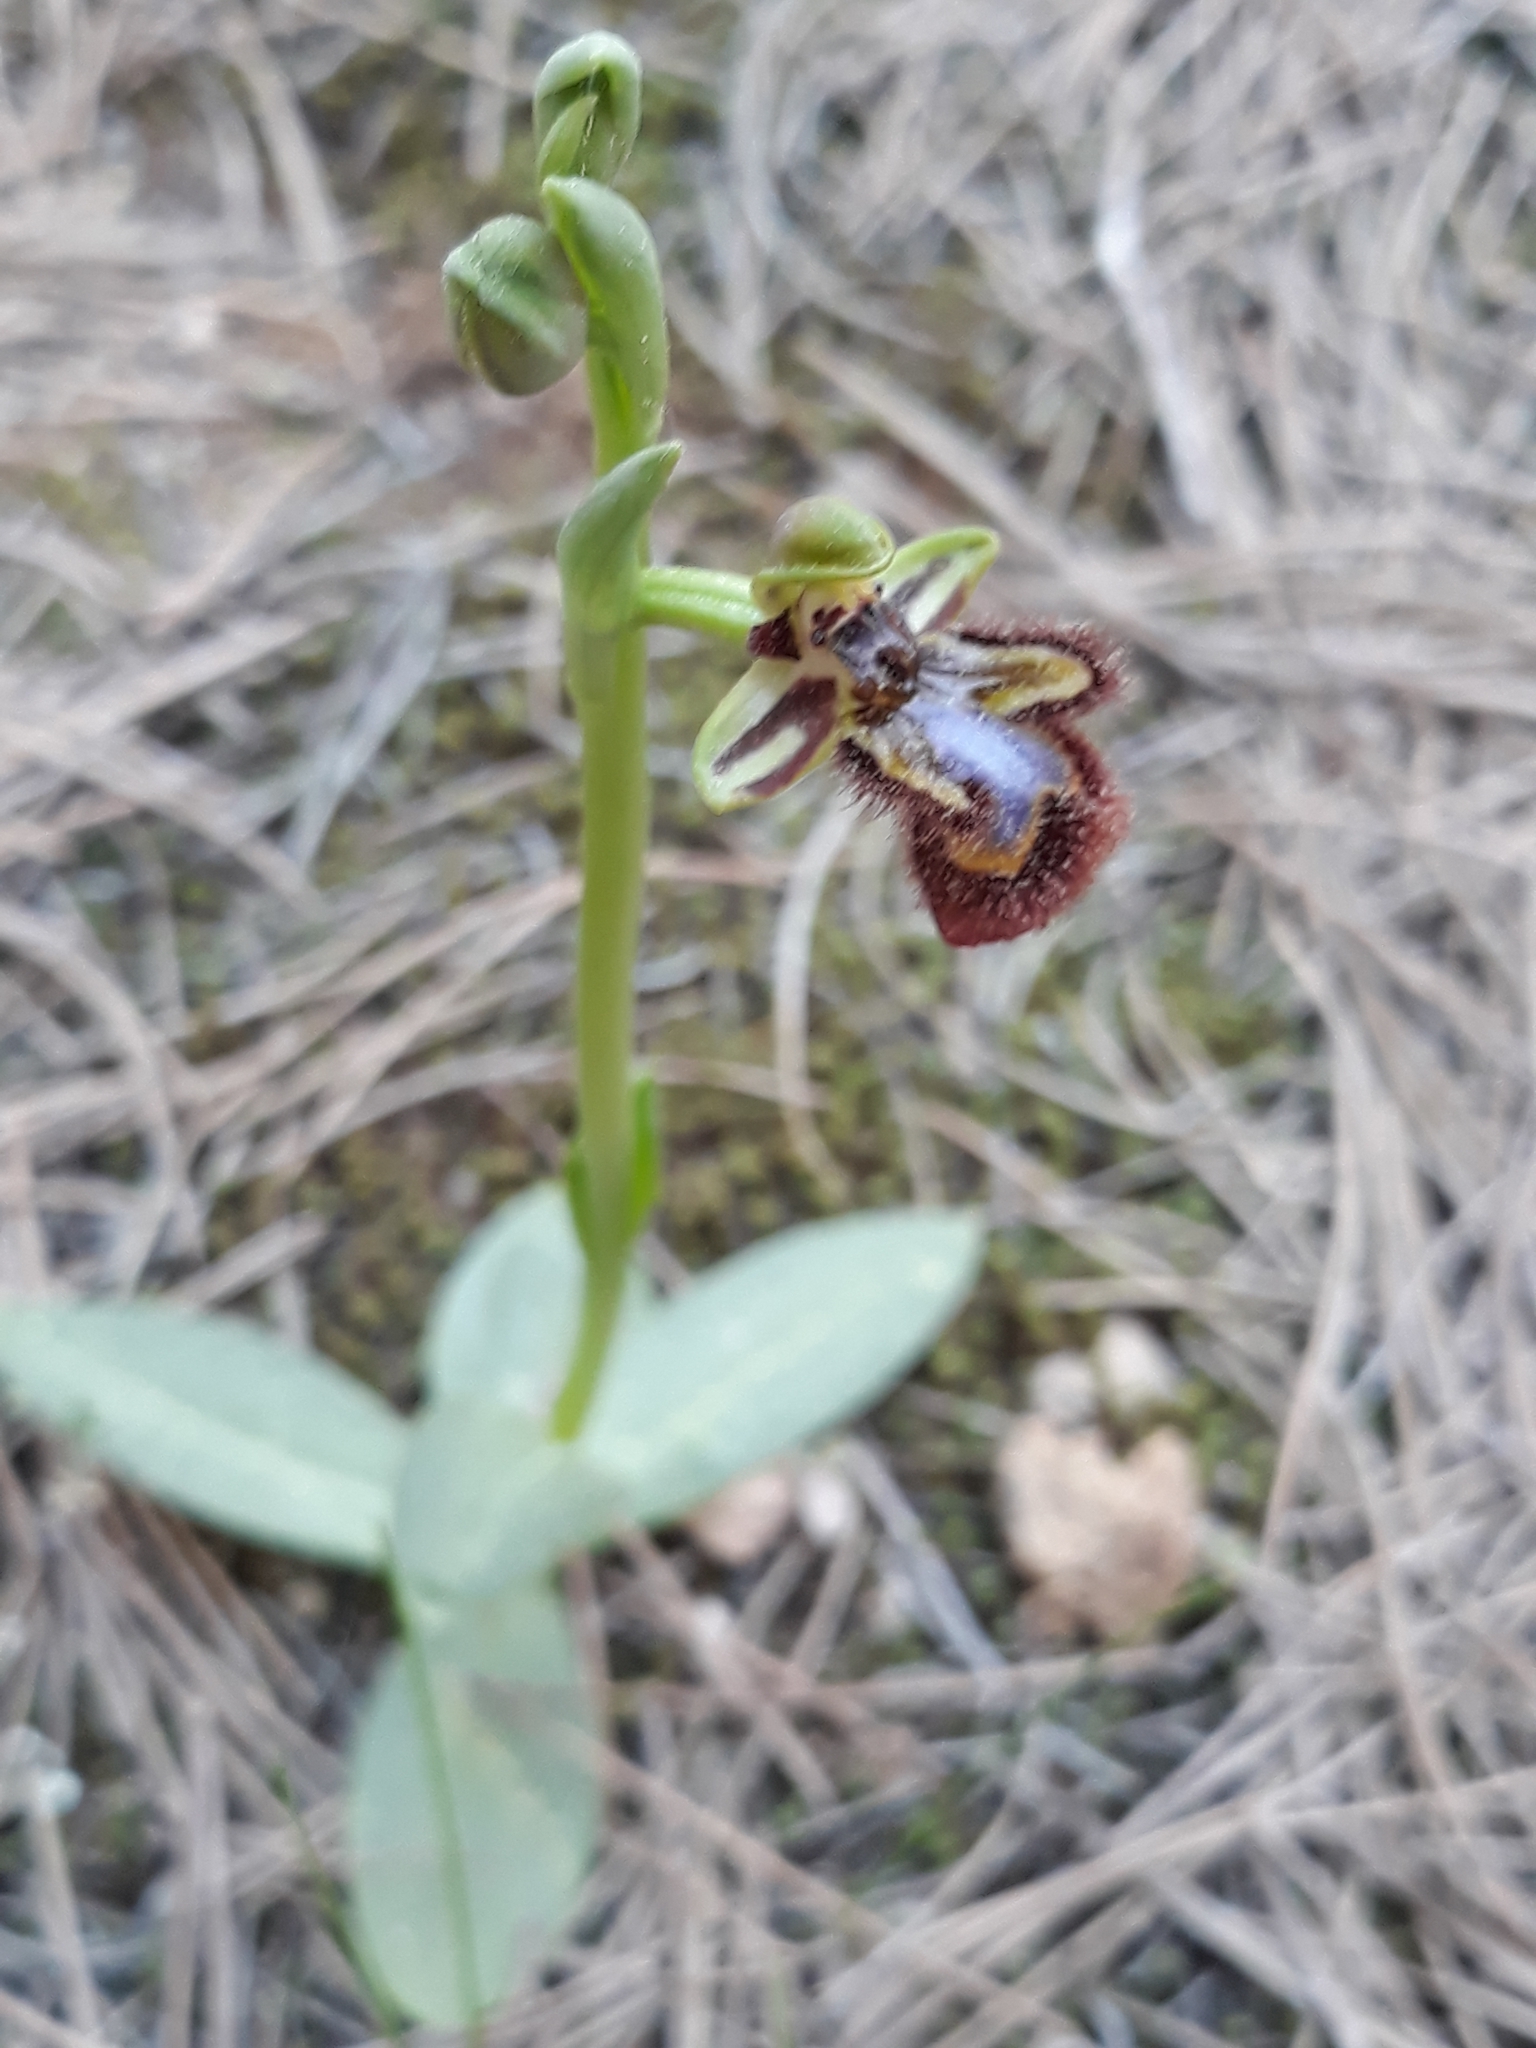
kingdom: Plantae
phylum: Tracheophyta
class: Liliopsida
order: Asparagales
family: Orchidaceae
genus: Ophrys
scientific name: Ophrys speculum
